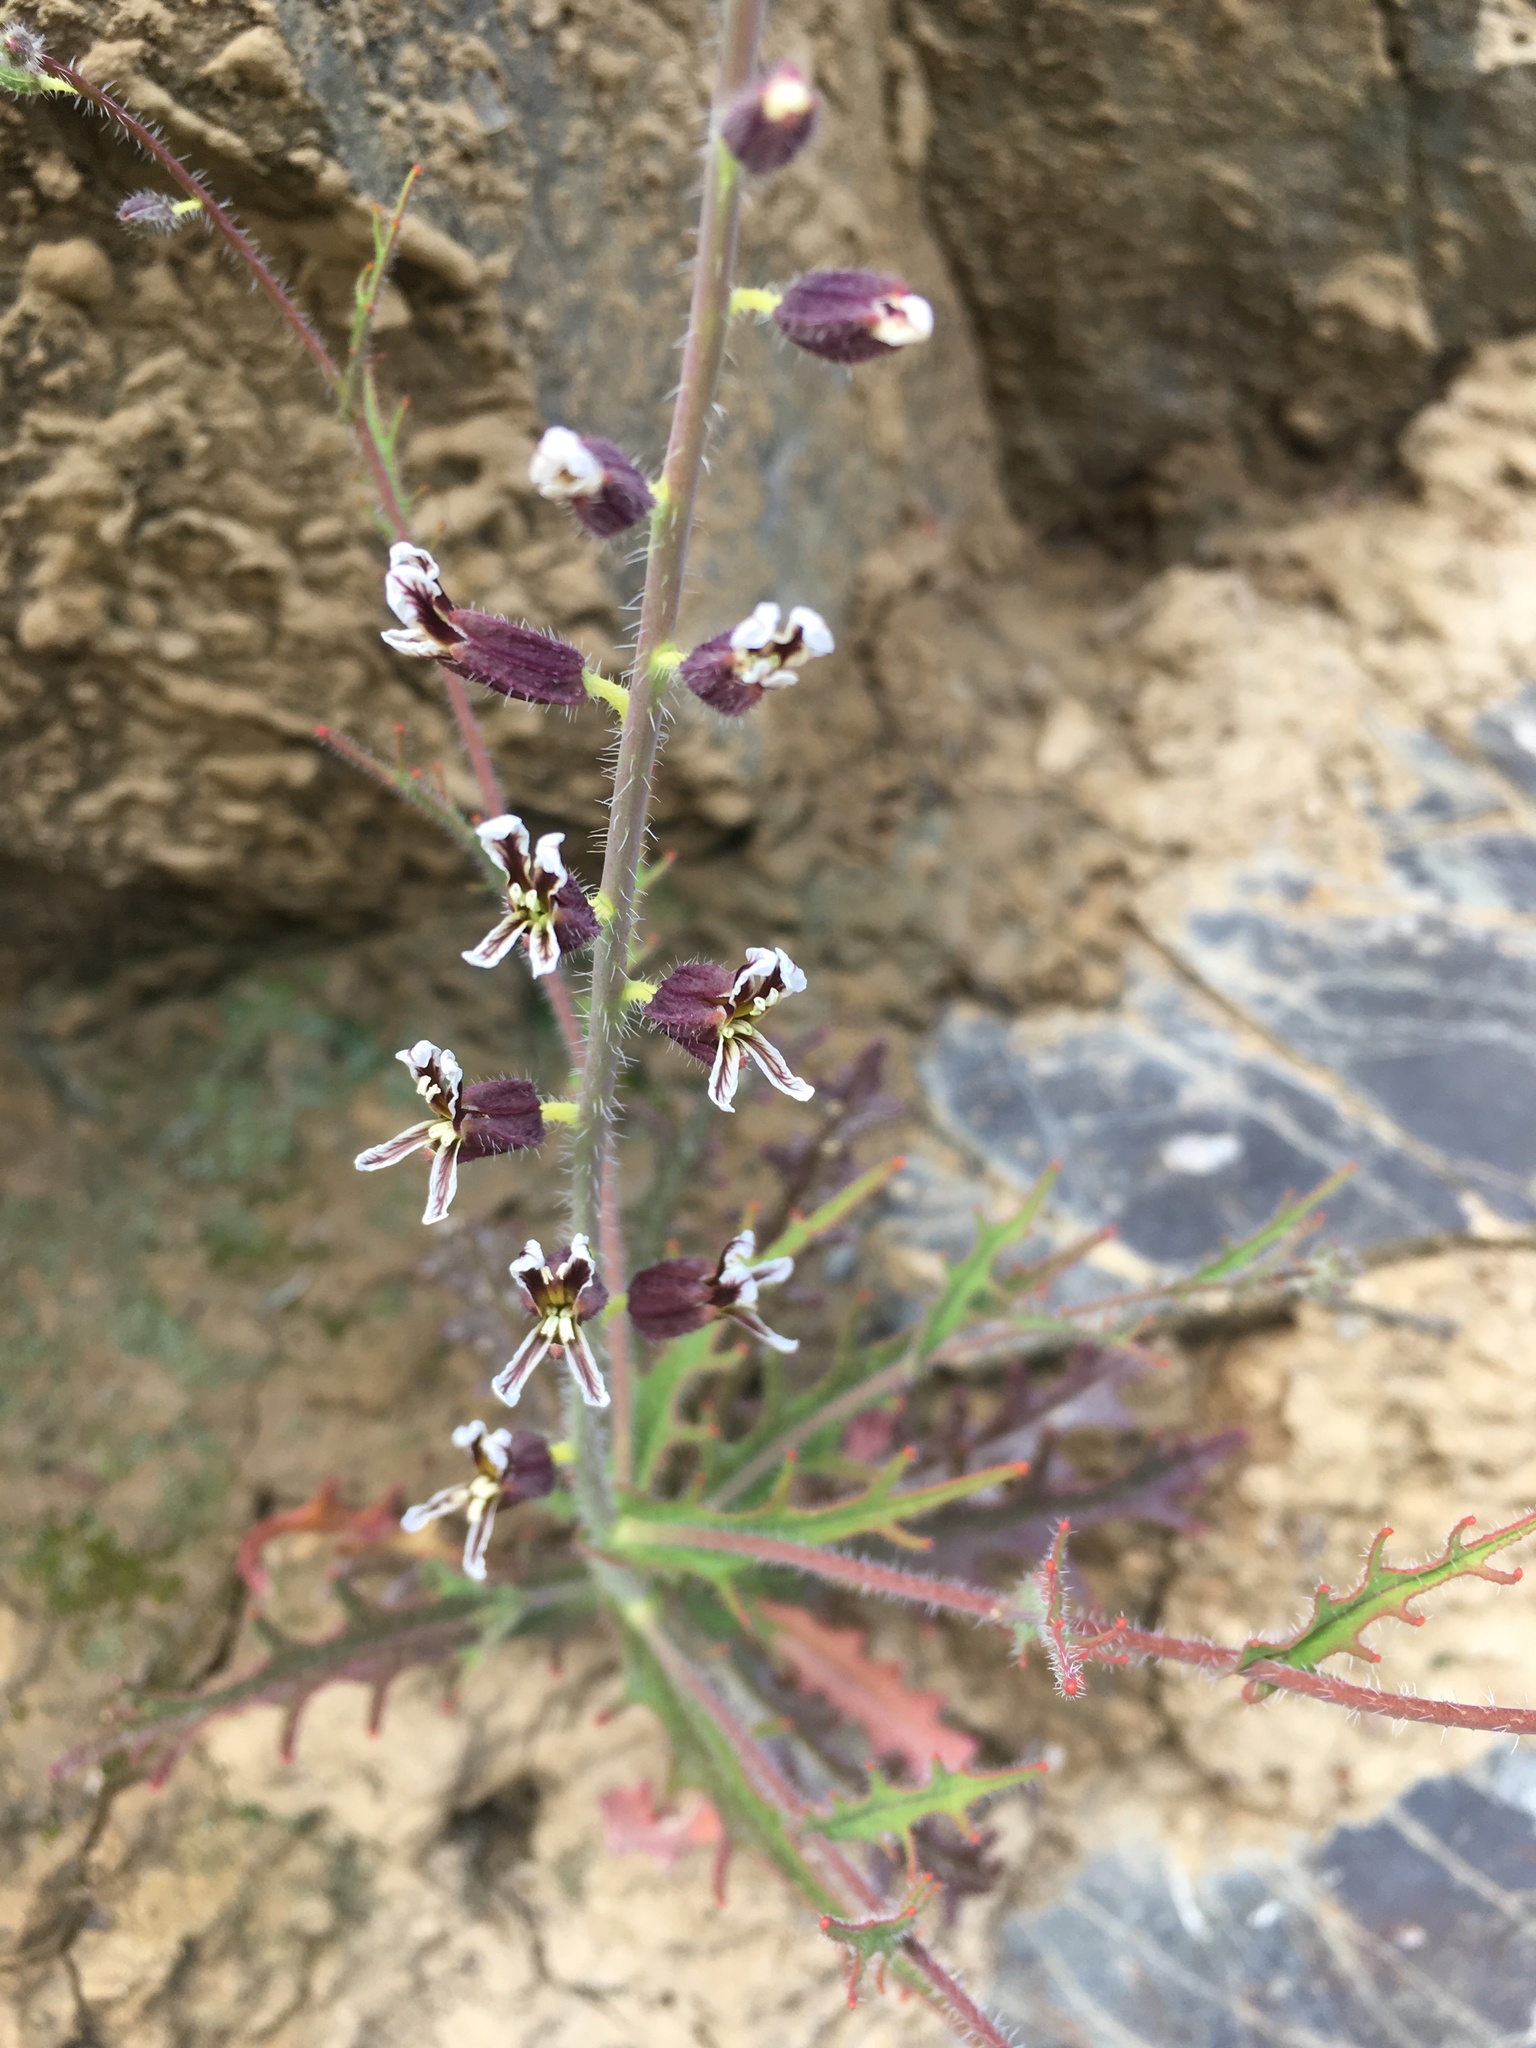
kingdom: Plantae
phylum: Tracheophyta
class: Magnoliopsida
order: Brassicales
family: Brassicaceae
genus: Streptanthus
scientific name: Streptanthus insignis
